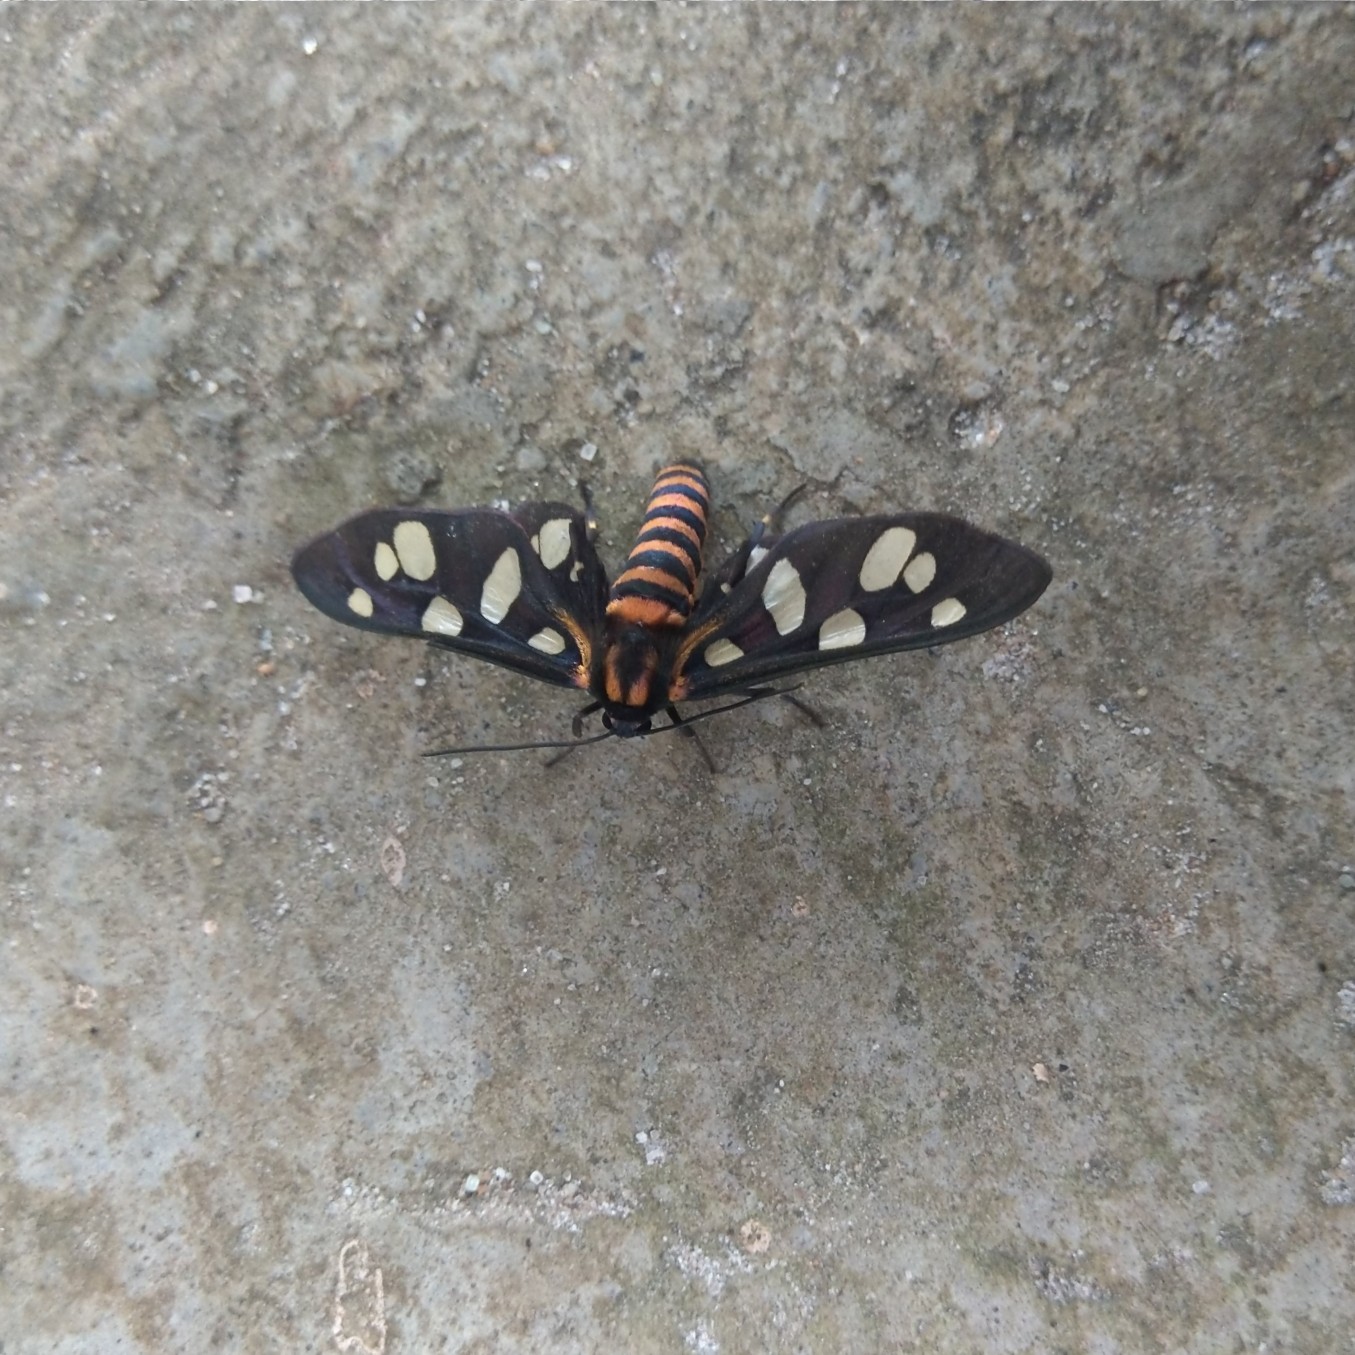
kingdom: Animalia
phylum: Arthropoda
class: Insecta
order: Lepidoptera
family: Erebidae
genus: Amata
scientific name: Amata passalis
